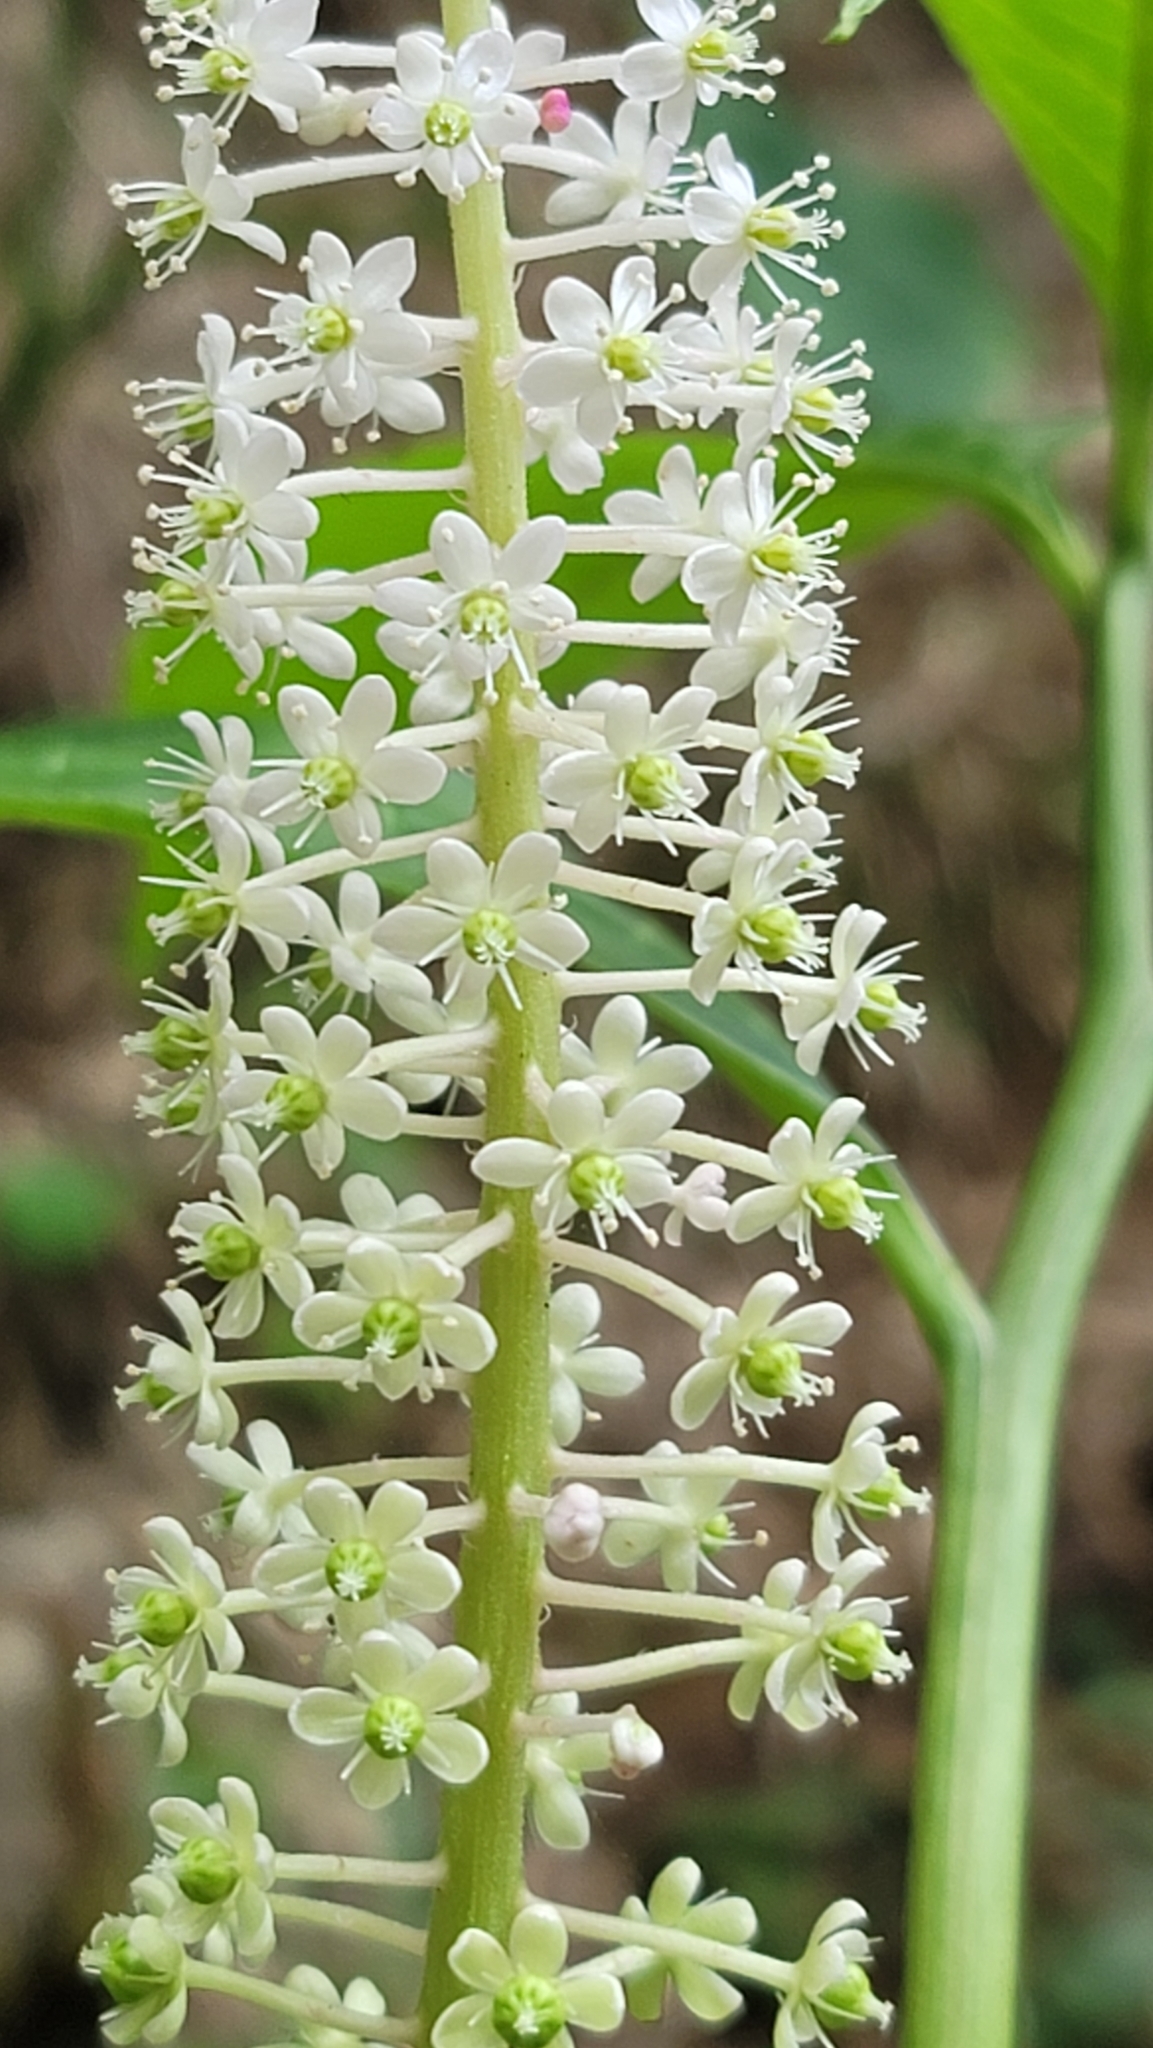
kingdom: Plantae
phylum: Tracheophyta
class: Magnoliopsida
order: Caryophyllales
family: Phytolaccaceae
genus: Phytolacca
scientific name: Phytolacca japonica
